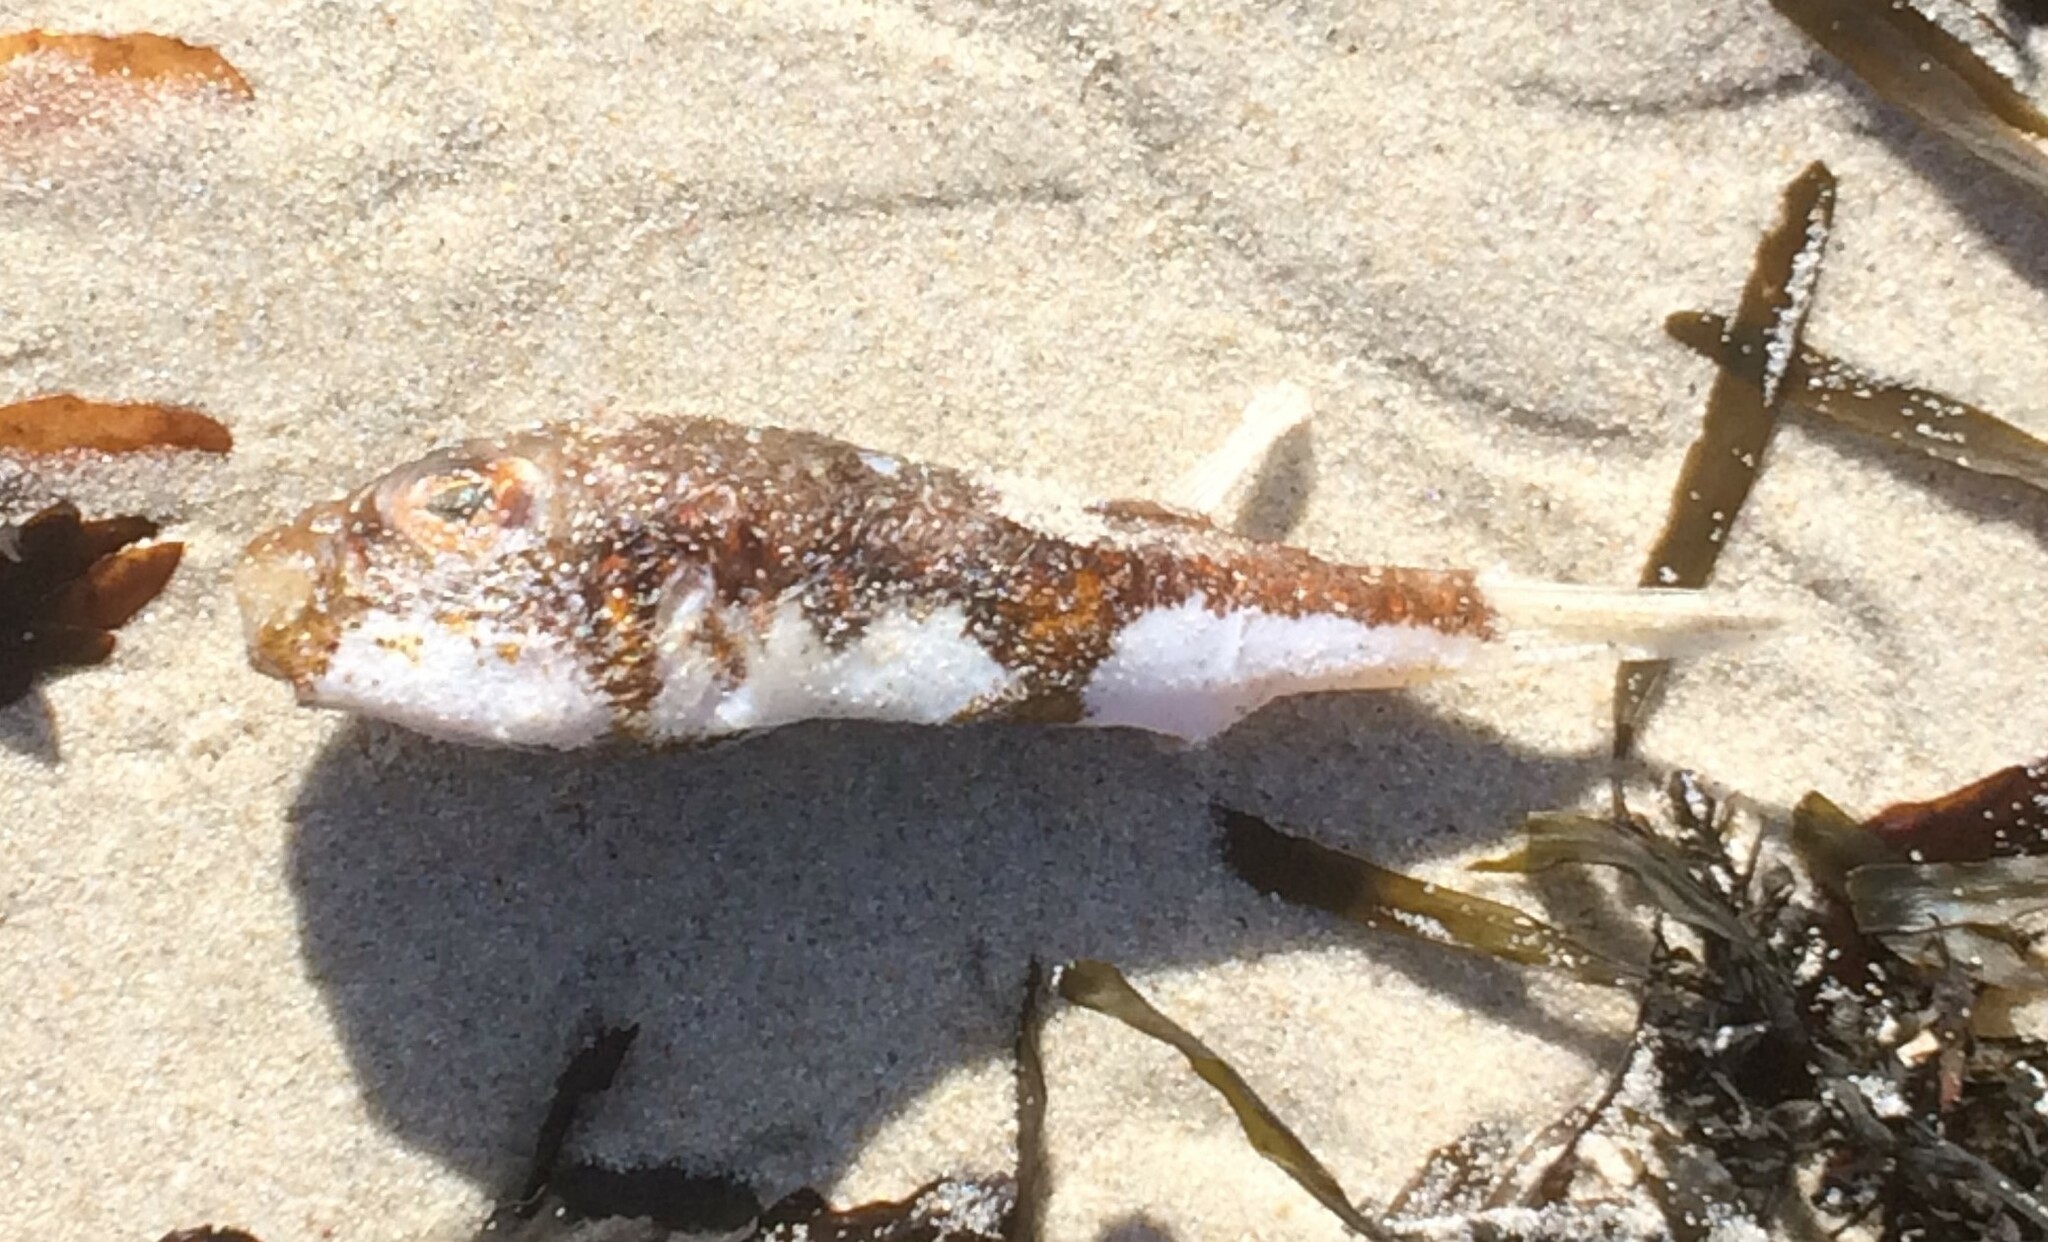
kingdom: Animalia
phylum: Chordata
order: Tetraodontiformes
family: Tetraodontidae
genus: Polyspina
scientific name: Polyspina piosae
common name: Orange-barred pufferfish
